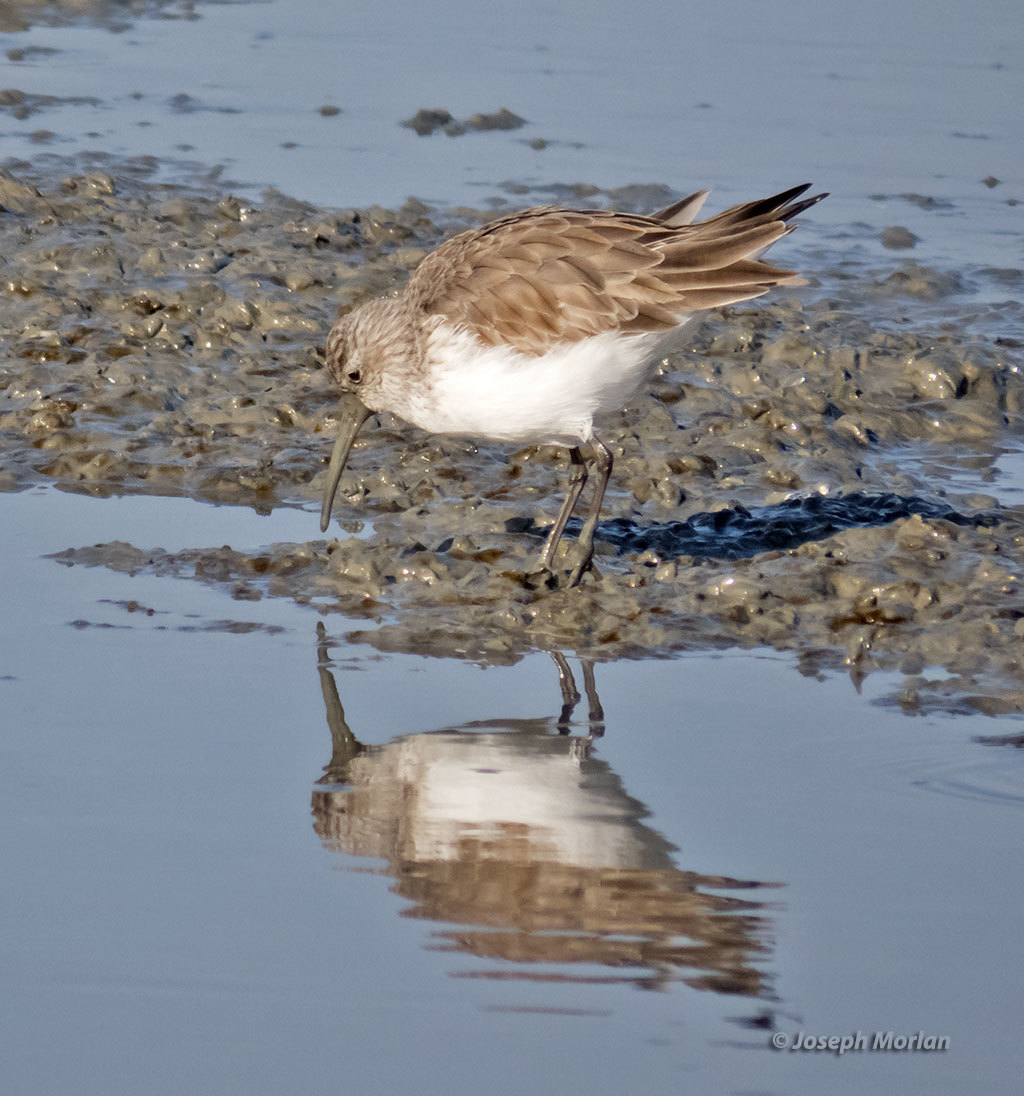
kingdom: Animalia
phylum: Chordata
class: Aves
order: Charadriiformes
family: Scolopacidae
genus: Calidris
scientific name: Calidris ferruginea
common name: Curlew sandpiper
